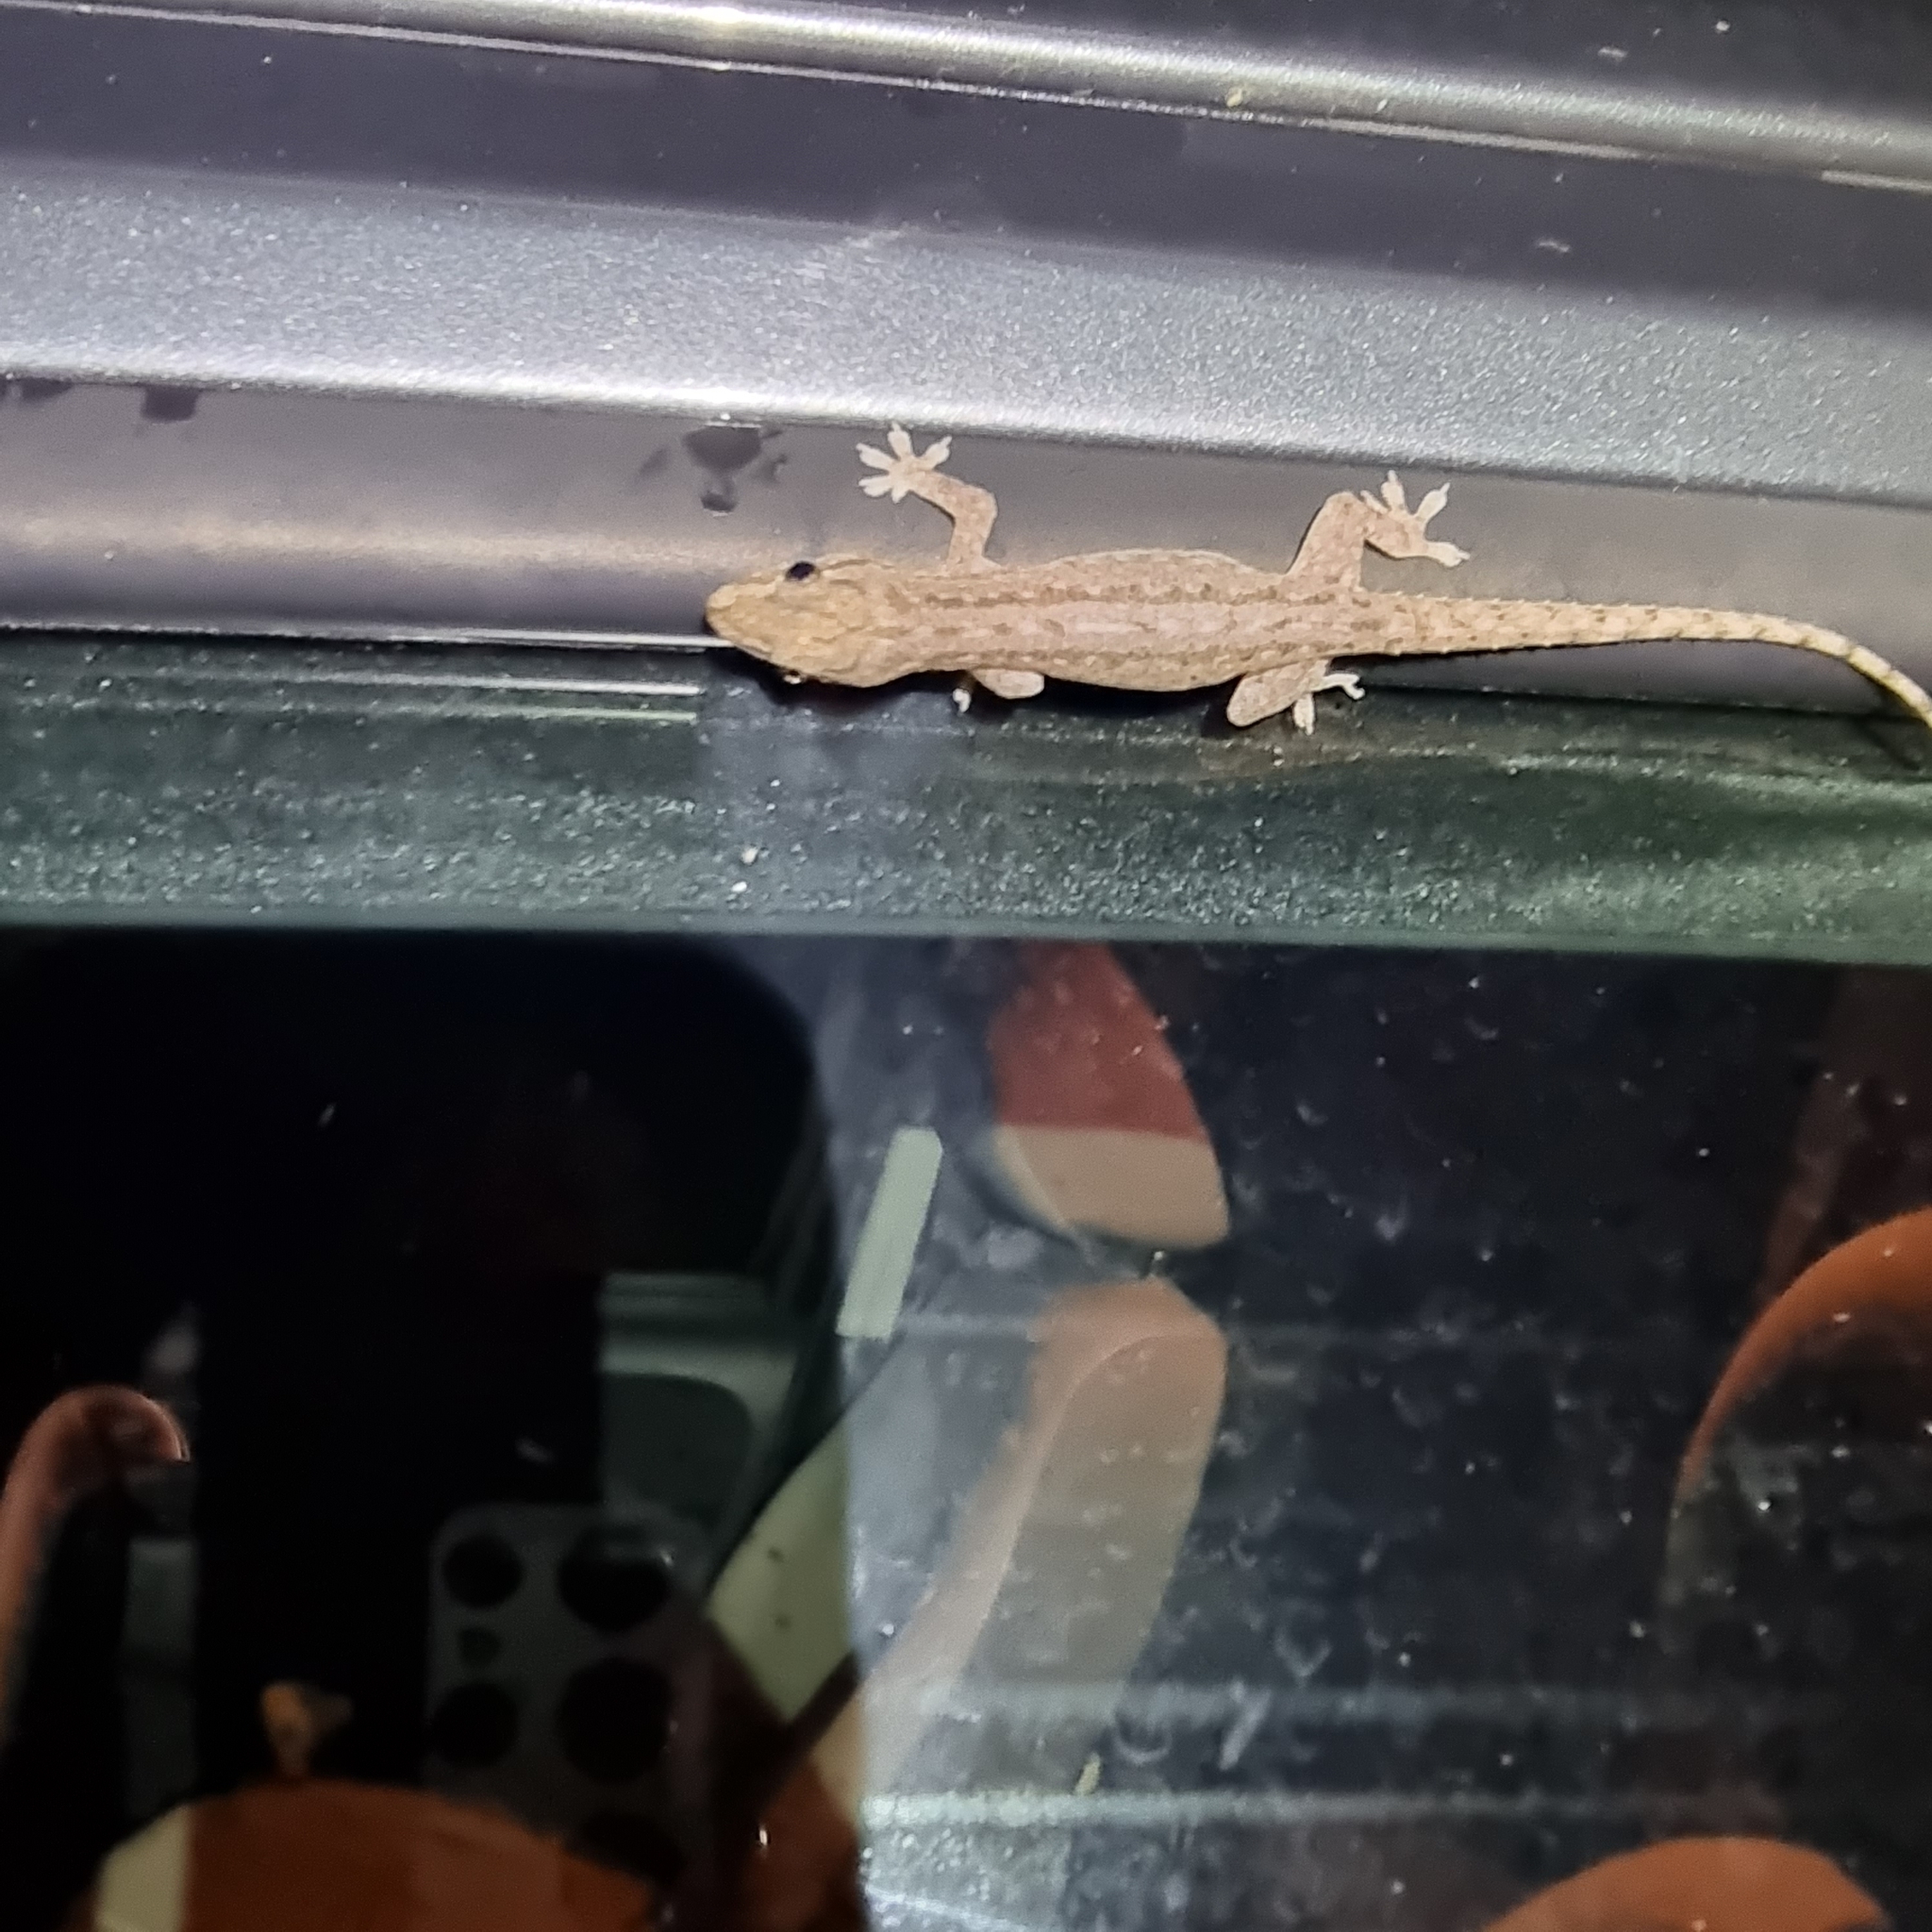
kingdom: Animalia
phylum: Chordata
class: Squamata
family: Gekkonidae
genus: Hemidactylus
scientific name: Hemidactylus frenatus
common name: Common house gecko
